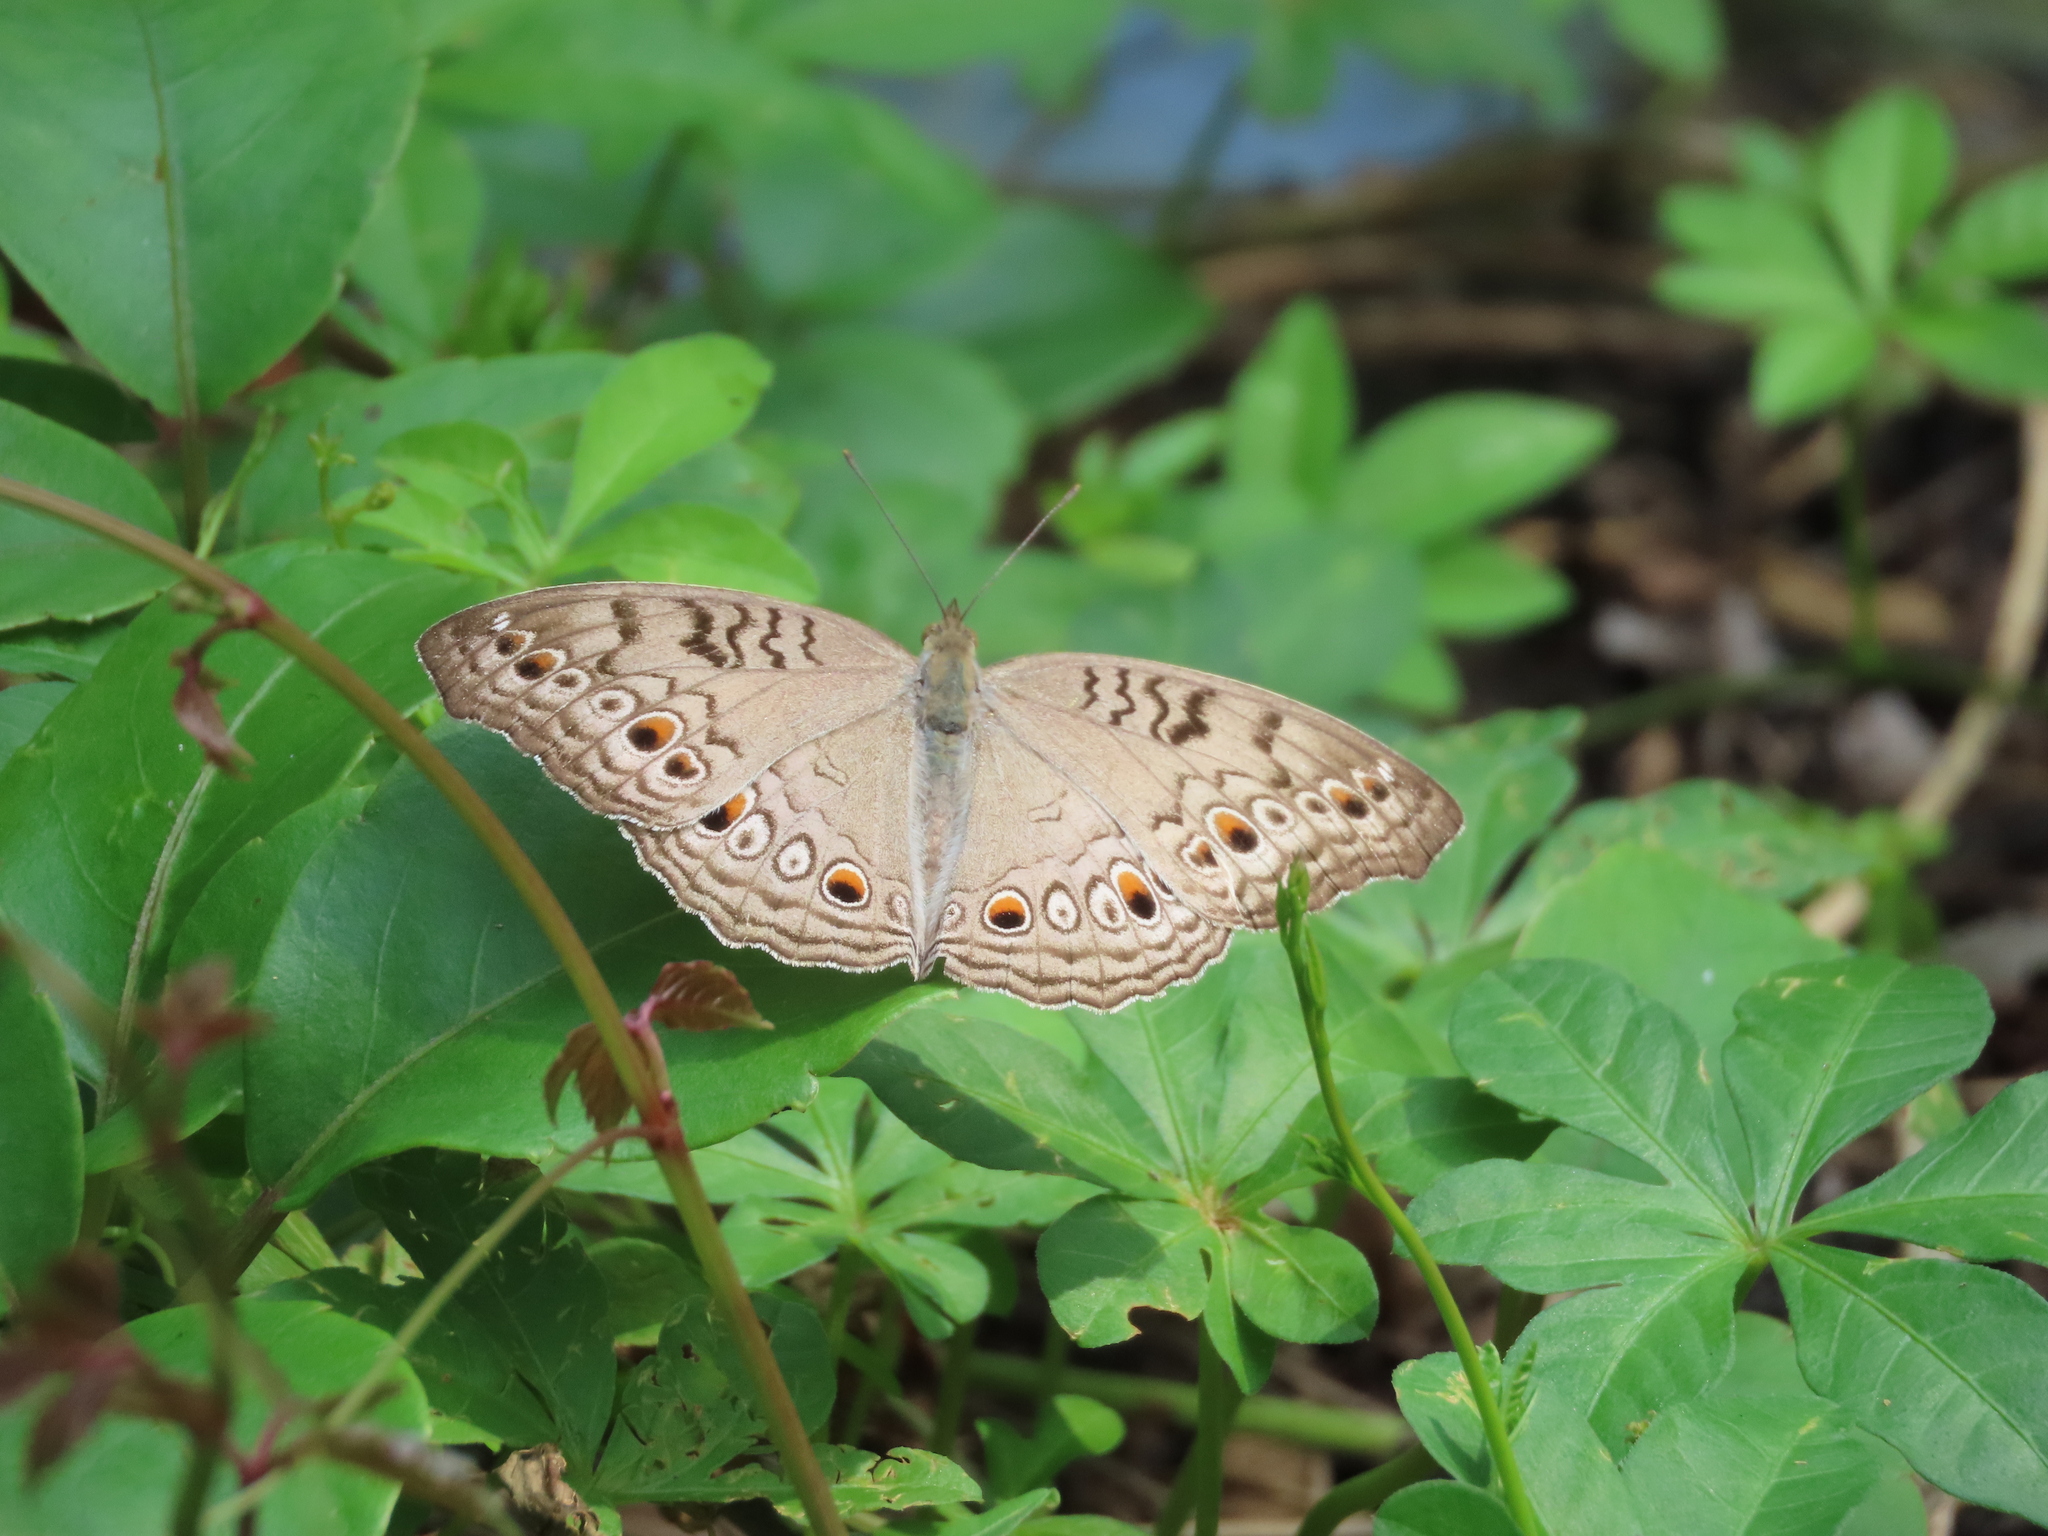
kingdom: Animalia
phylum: Arthropoda
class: Insecta
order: Lepidoptera
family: Nymphalidae
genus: Junonia
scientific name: Junonia atlites
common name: Grey pansy
